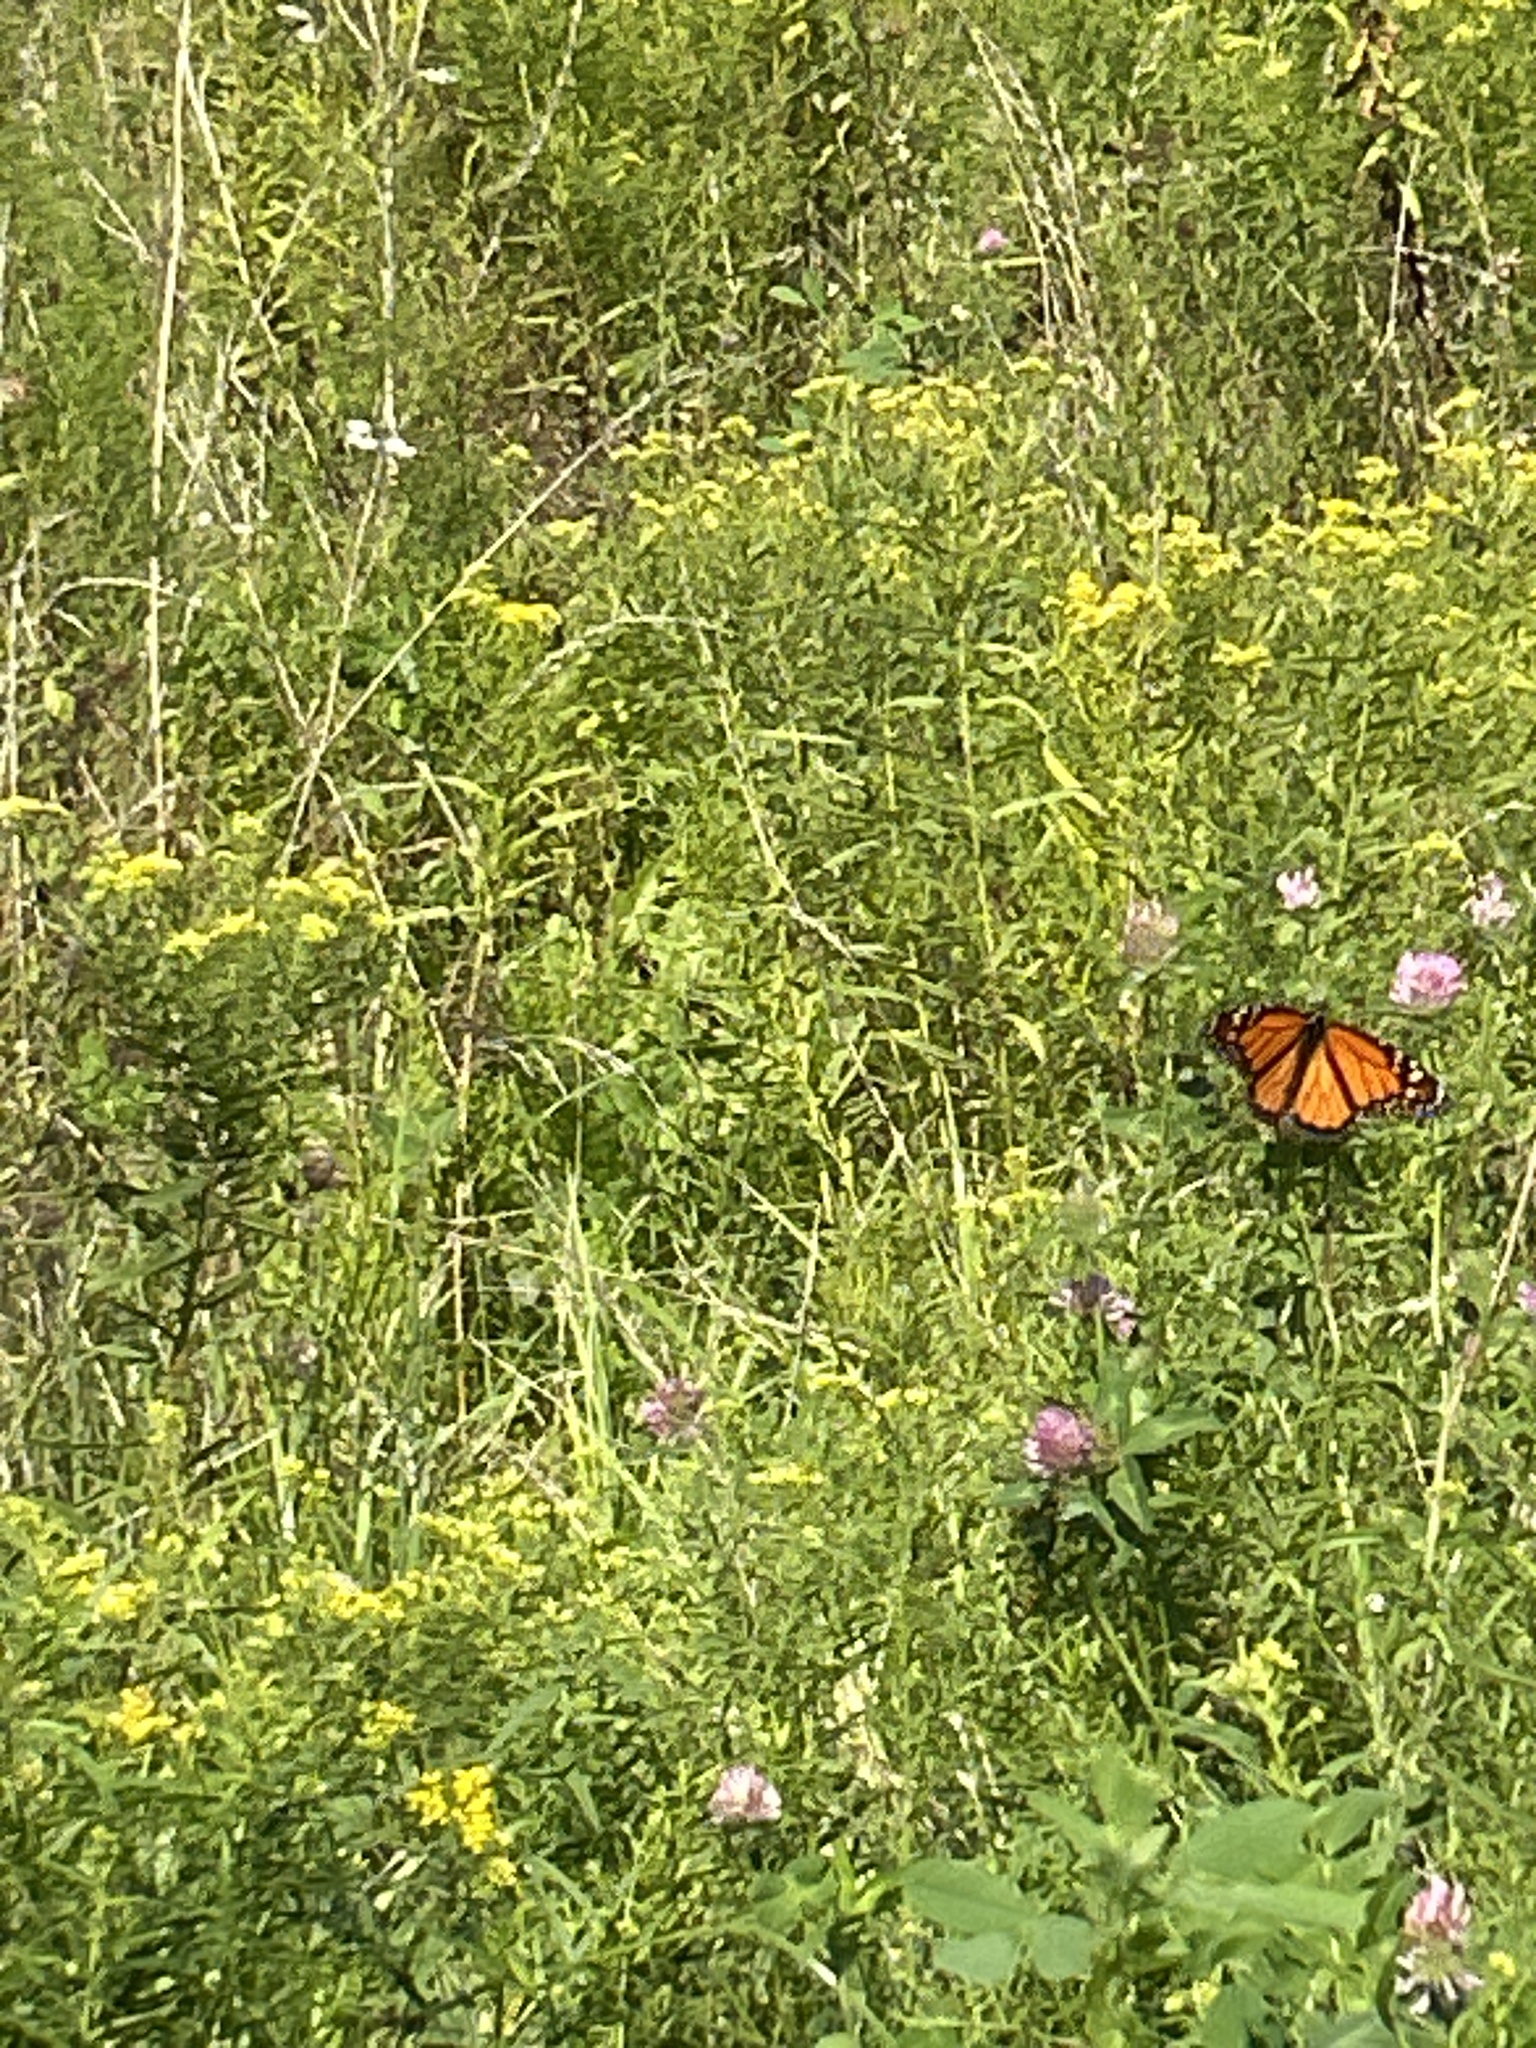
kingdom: Animalia
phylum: Arthropoda
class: Insecta
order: Lepidoptera
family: Nymphalidae
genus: Danaus
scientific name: Danaus plexippus
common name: Monarch
